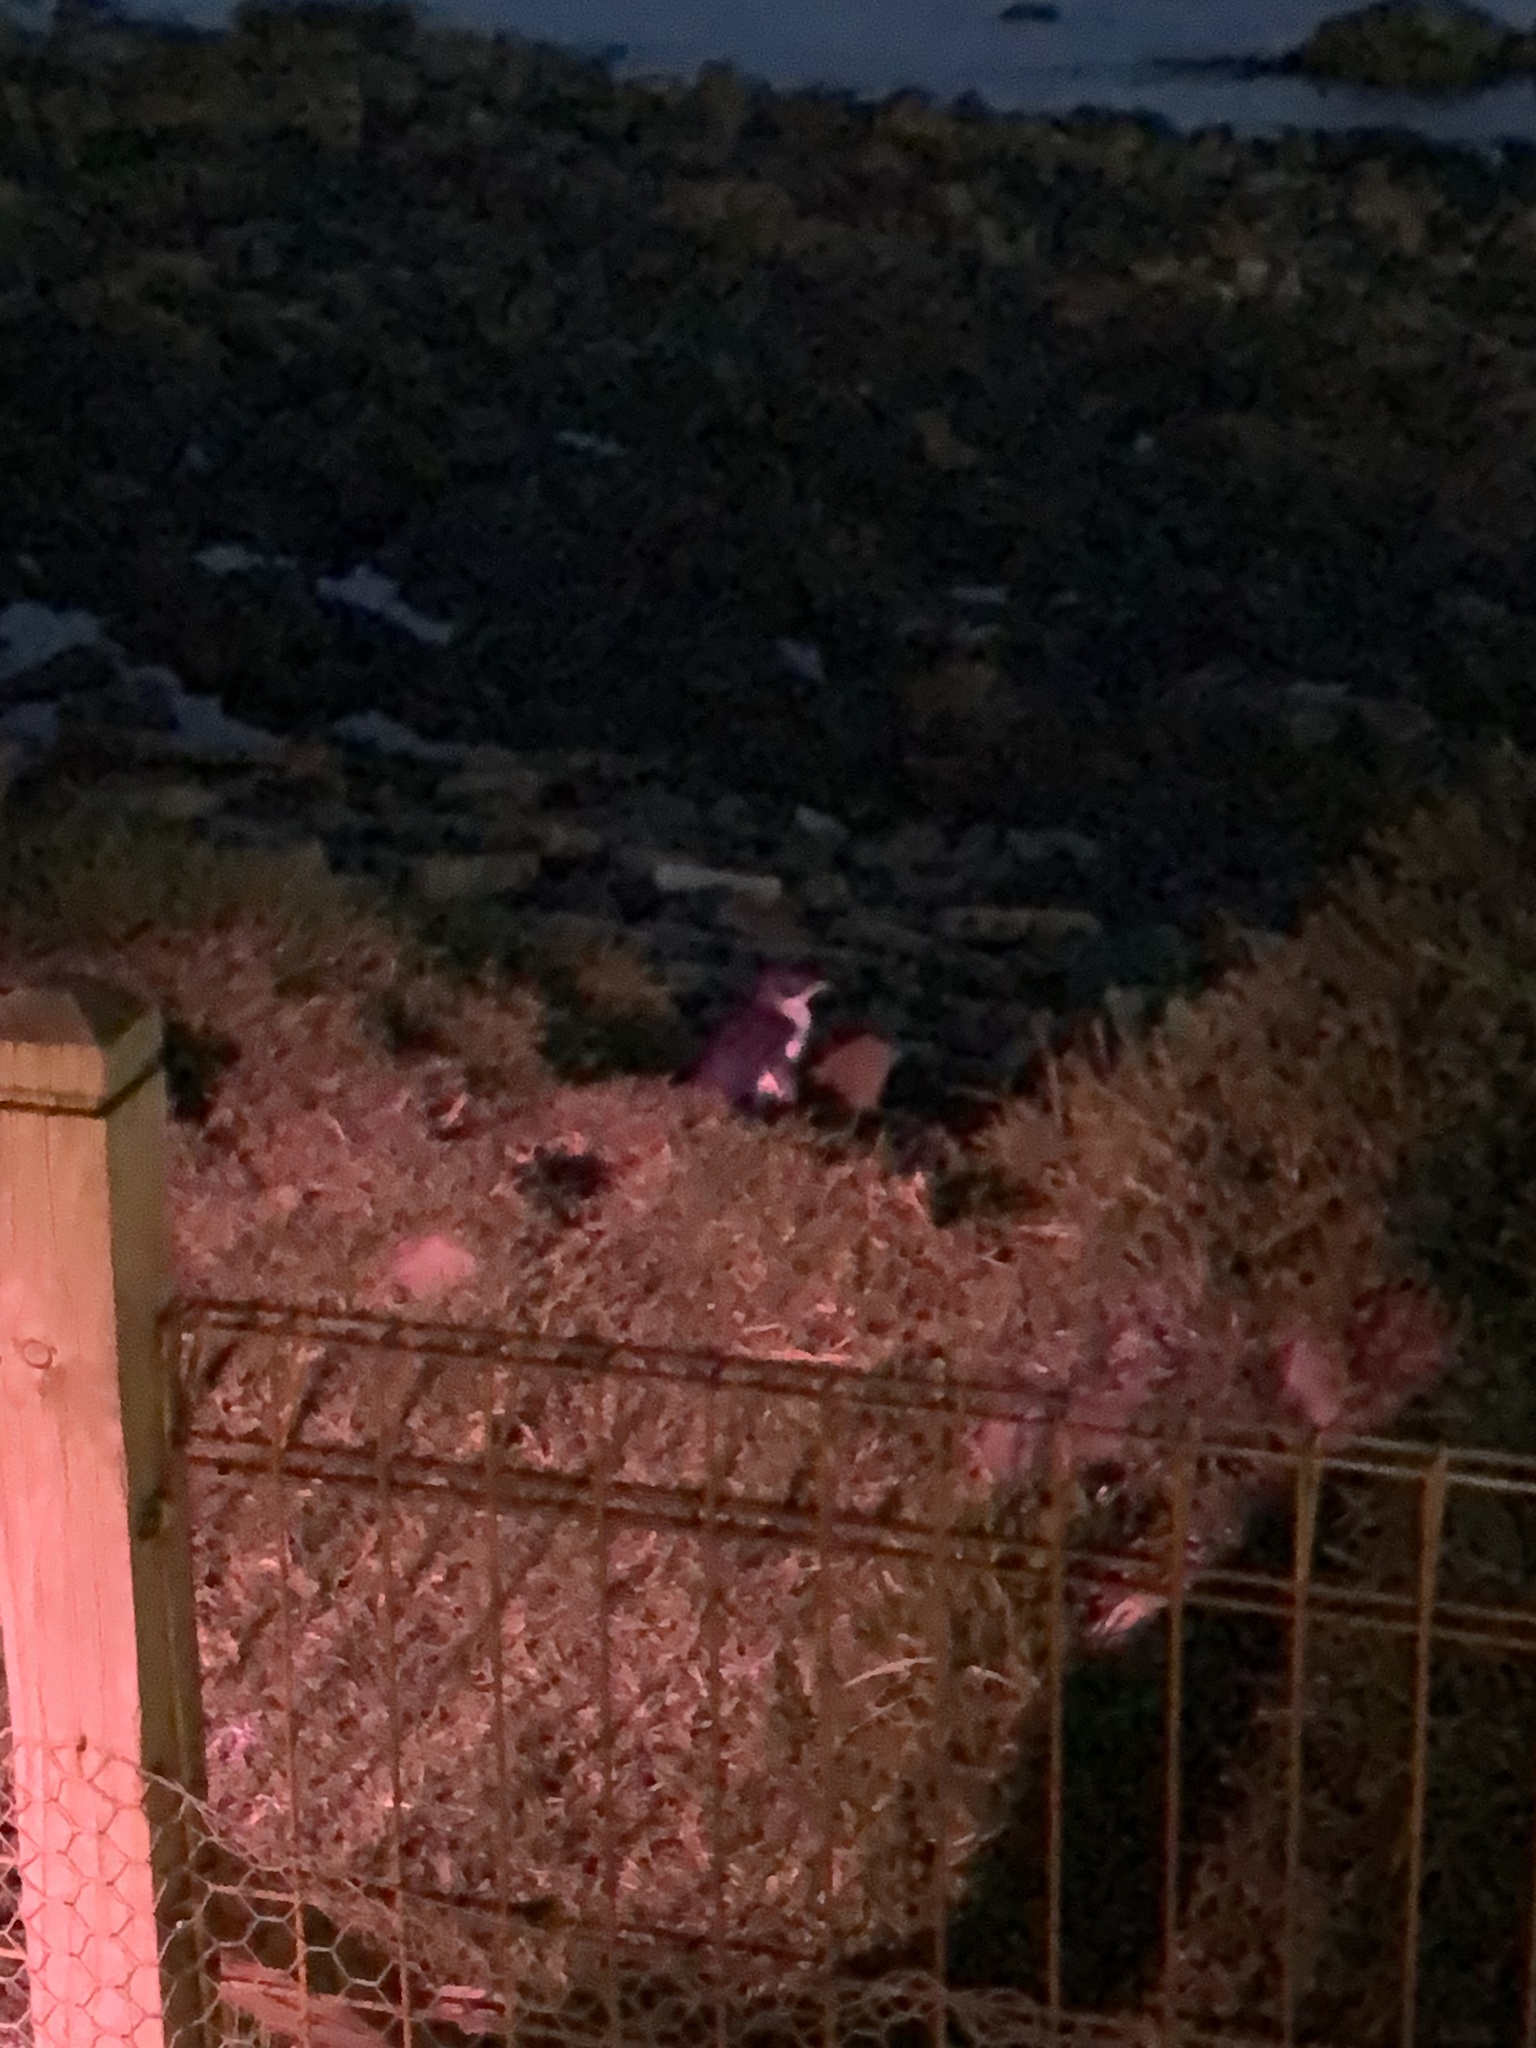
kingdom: Animalia
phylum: Chordata
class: Aves
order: Sphenisciformes
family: Spheniscidae
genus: Eudyptula
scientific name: Eudyptula minor
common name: Little penguin
